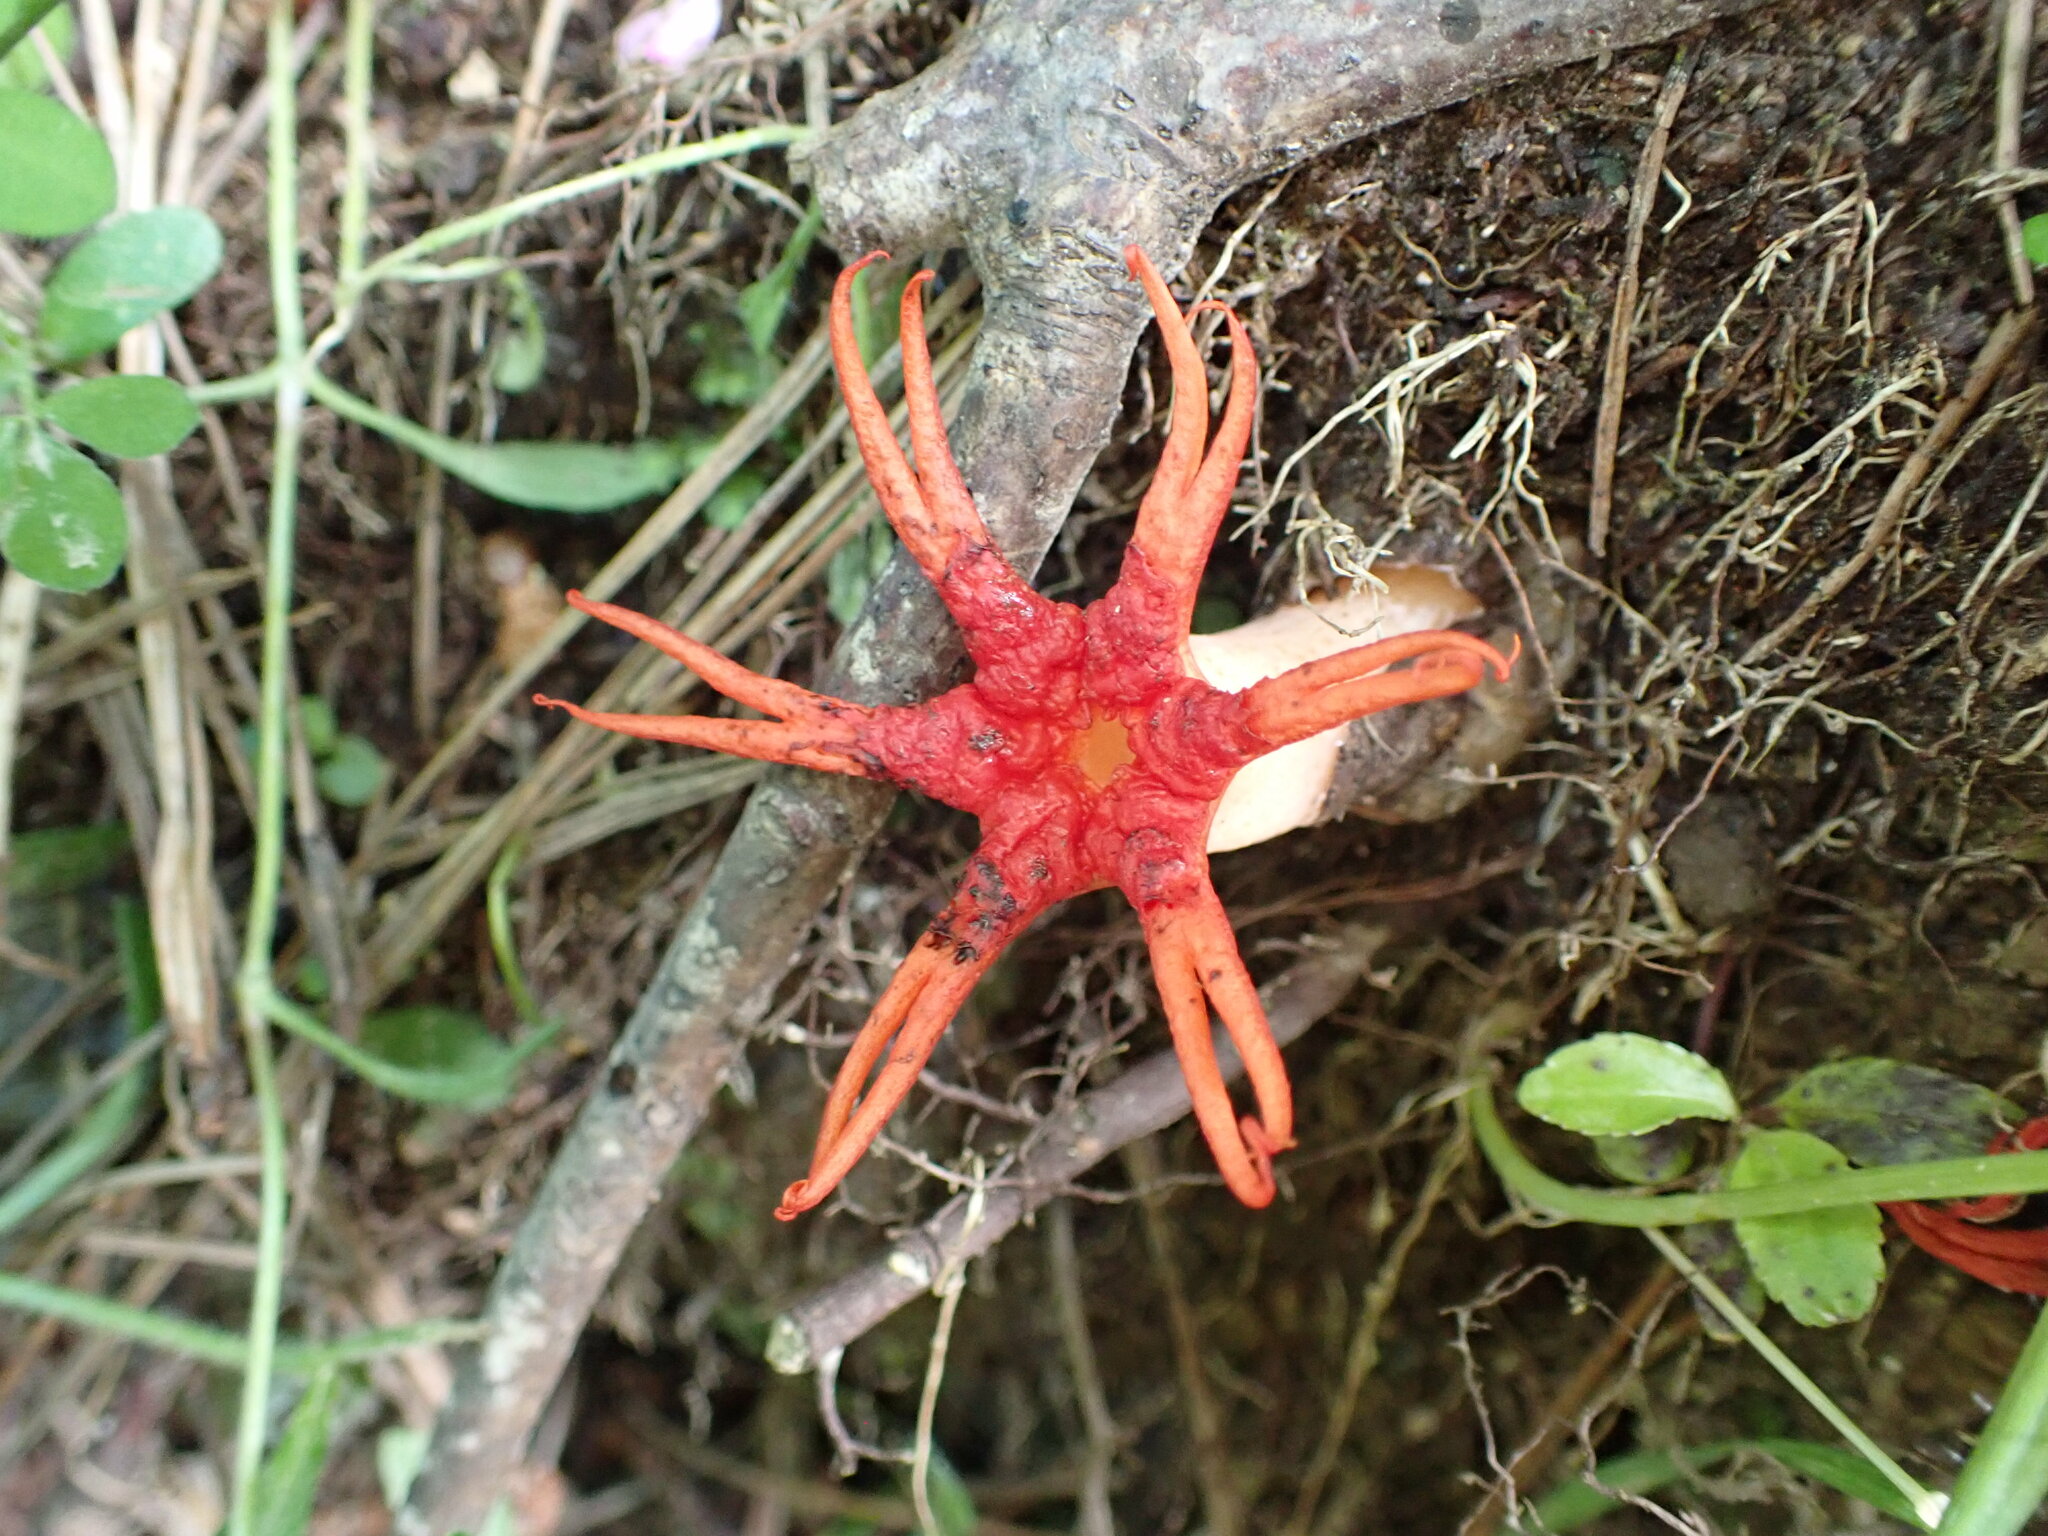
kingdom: Fungi
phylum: Basidiomycota
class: Agaricomycetes
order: Phallales
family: Phallaceae
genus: Aseroe
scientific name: Aseroe rubra
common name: Starfish fungus
